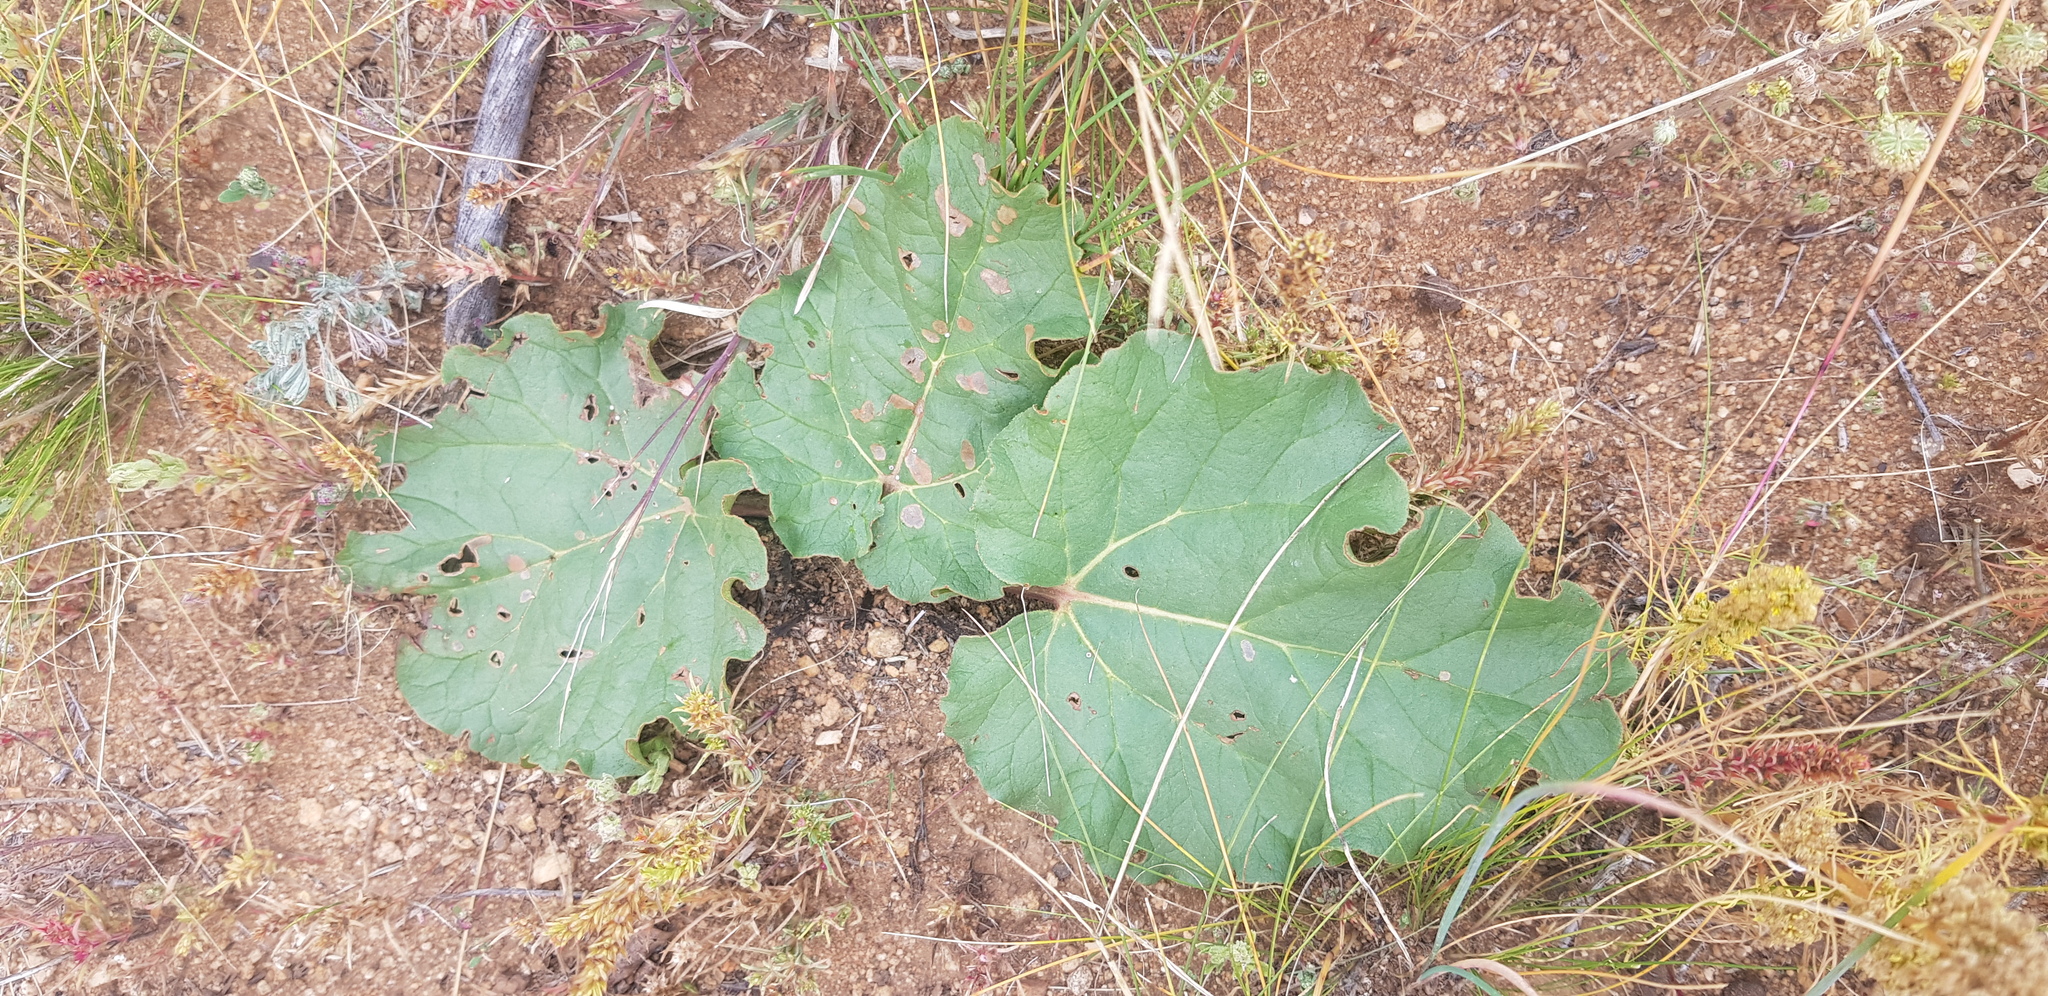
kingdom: Plantae
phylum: Tracheophyta
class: Magnoliopsida
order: Caryophyllales
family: Polygonaceae
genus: Rheum
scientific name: Rheum rhabarbarum
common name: Garden rhubarb
